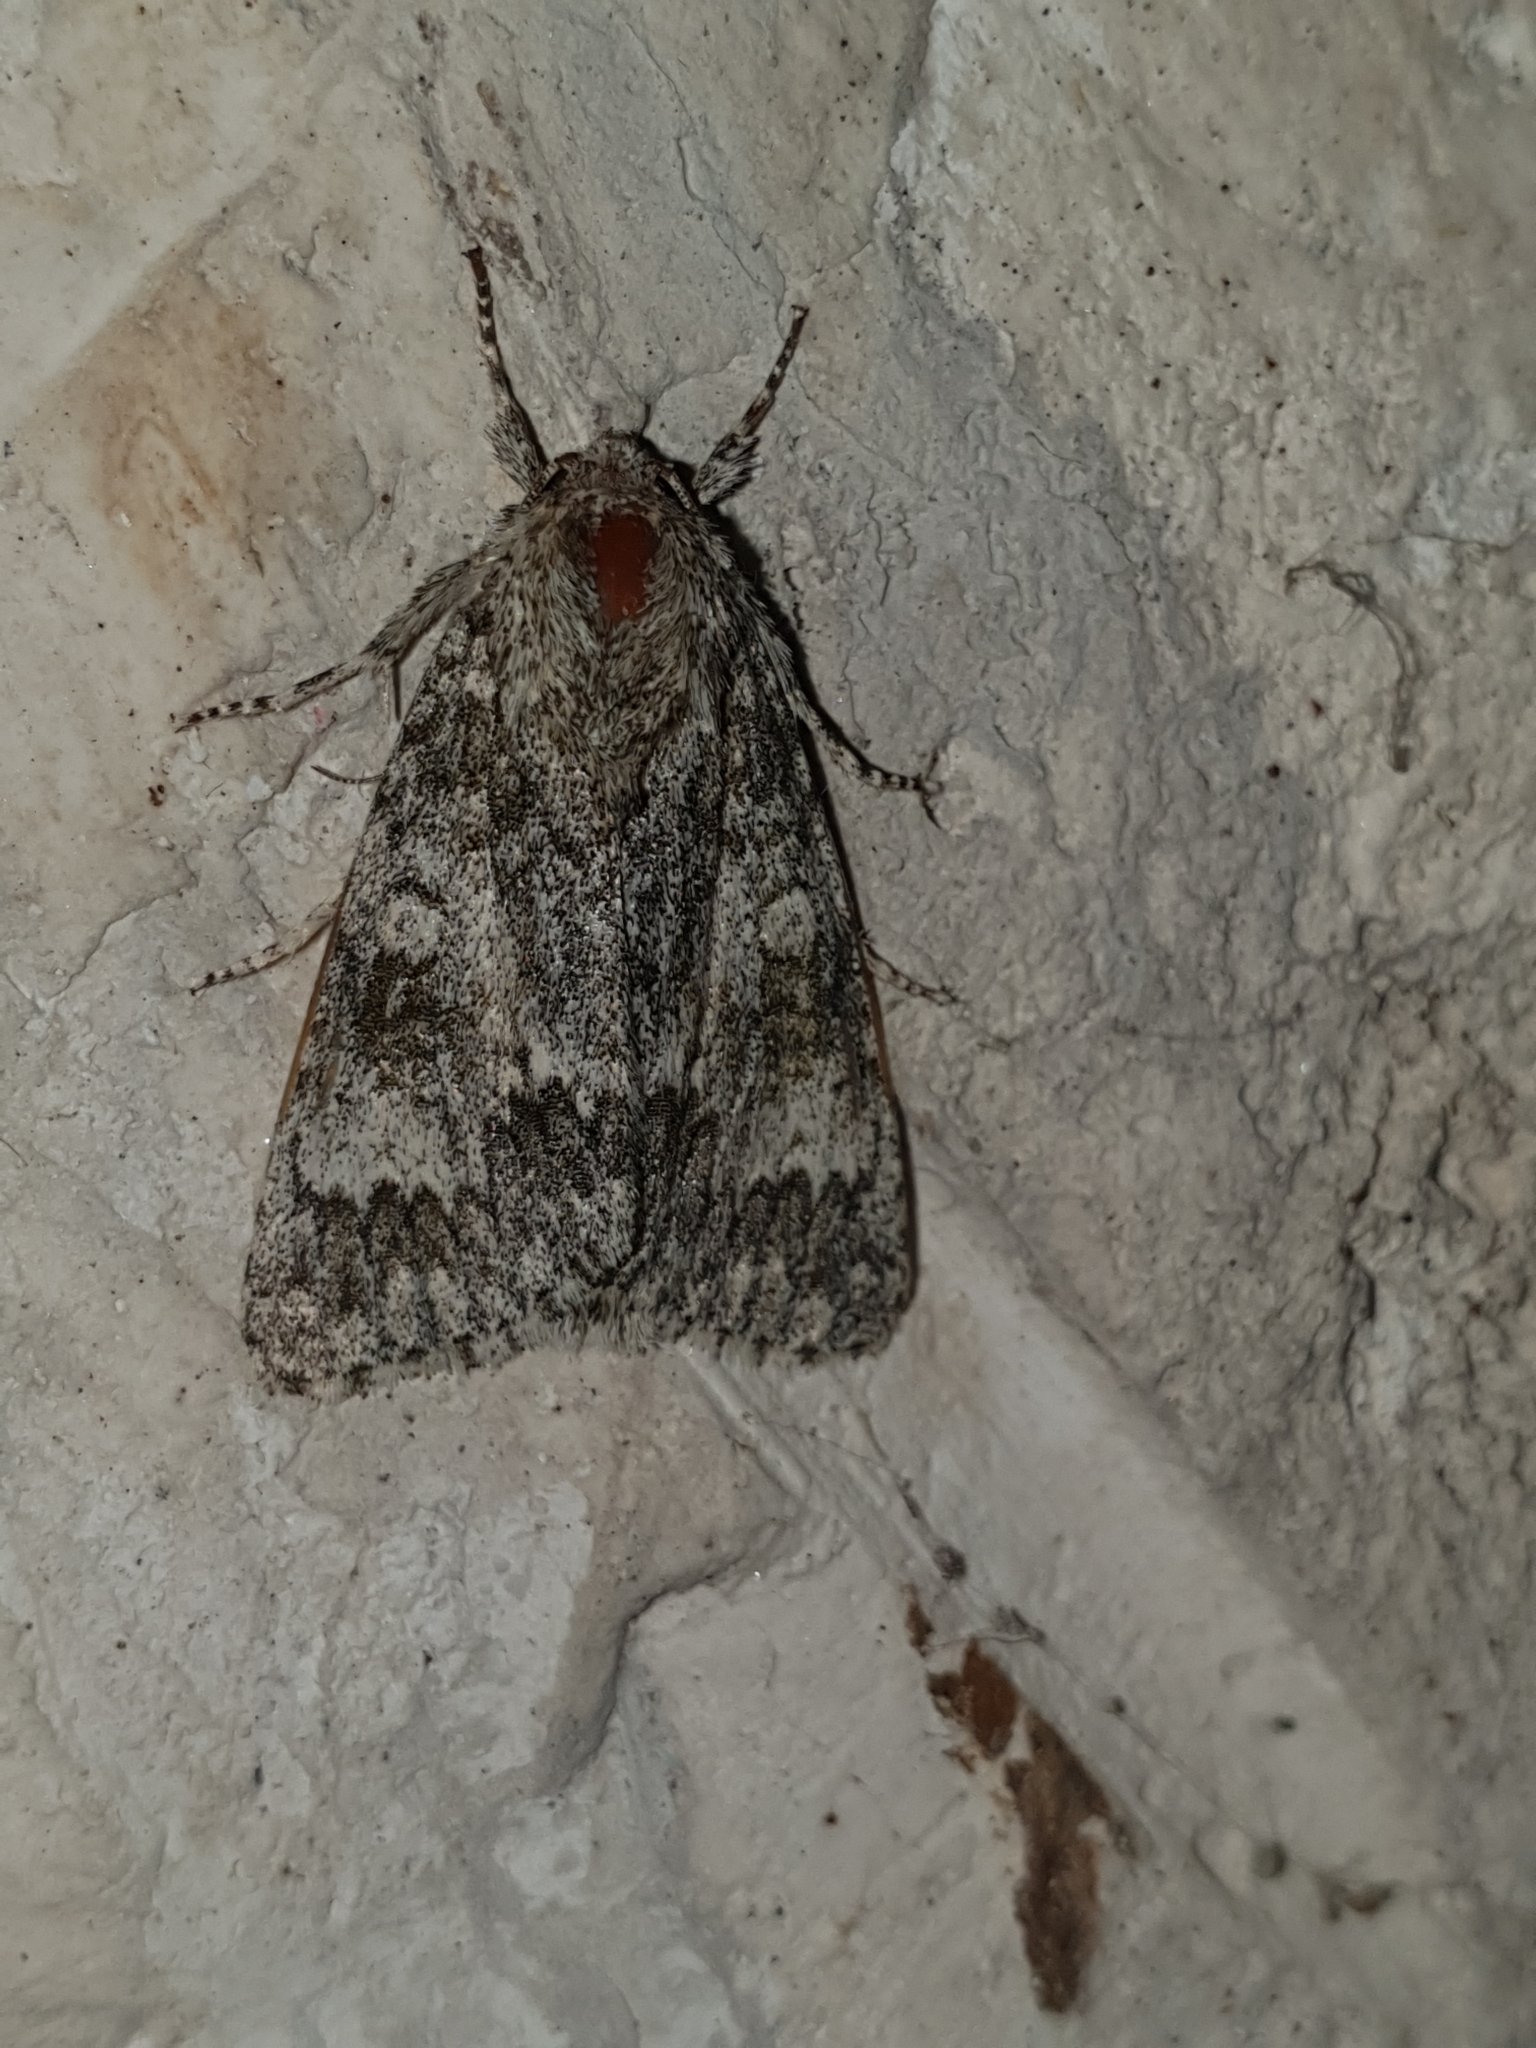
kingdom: Animalia
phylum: Arthropoda
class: Insecta
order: Lepidoptera
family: Noctuidae
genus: Acronicta
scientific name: Acronicta megacephala
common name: Poplar grey
